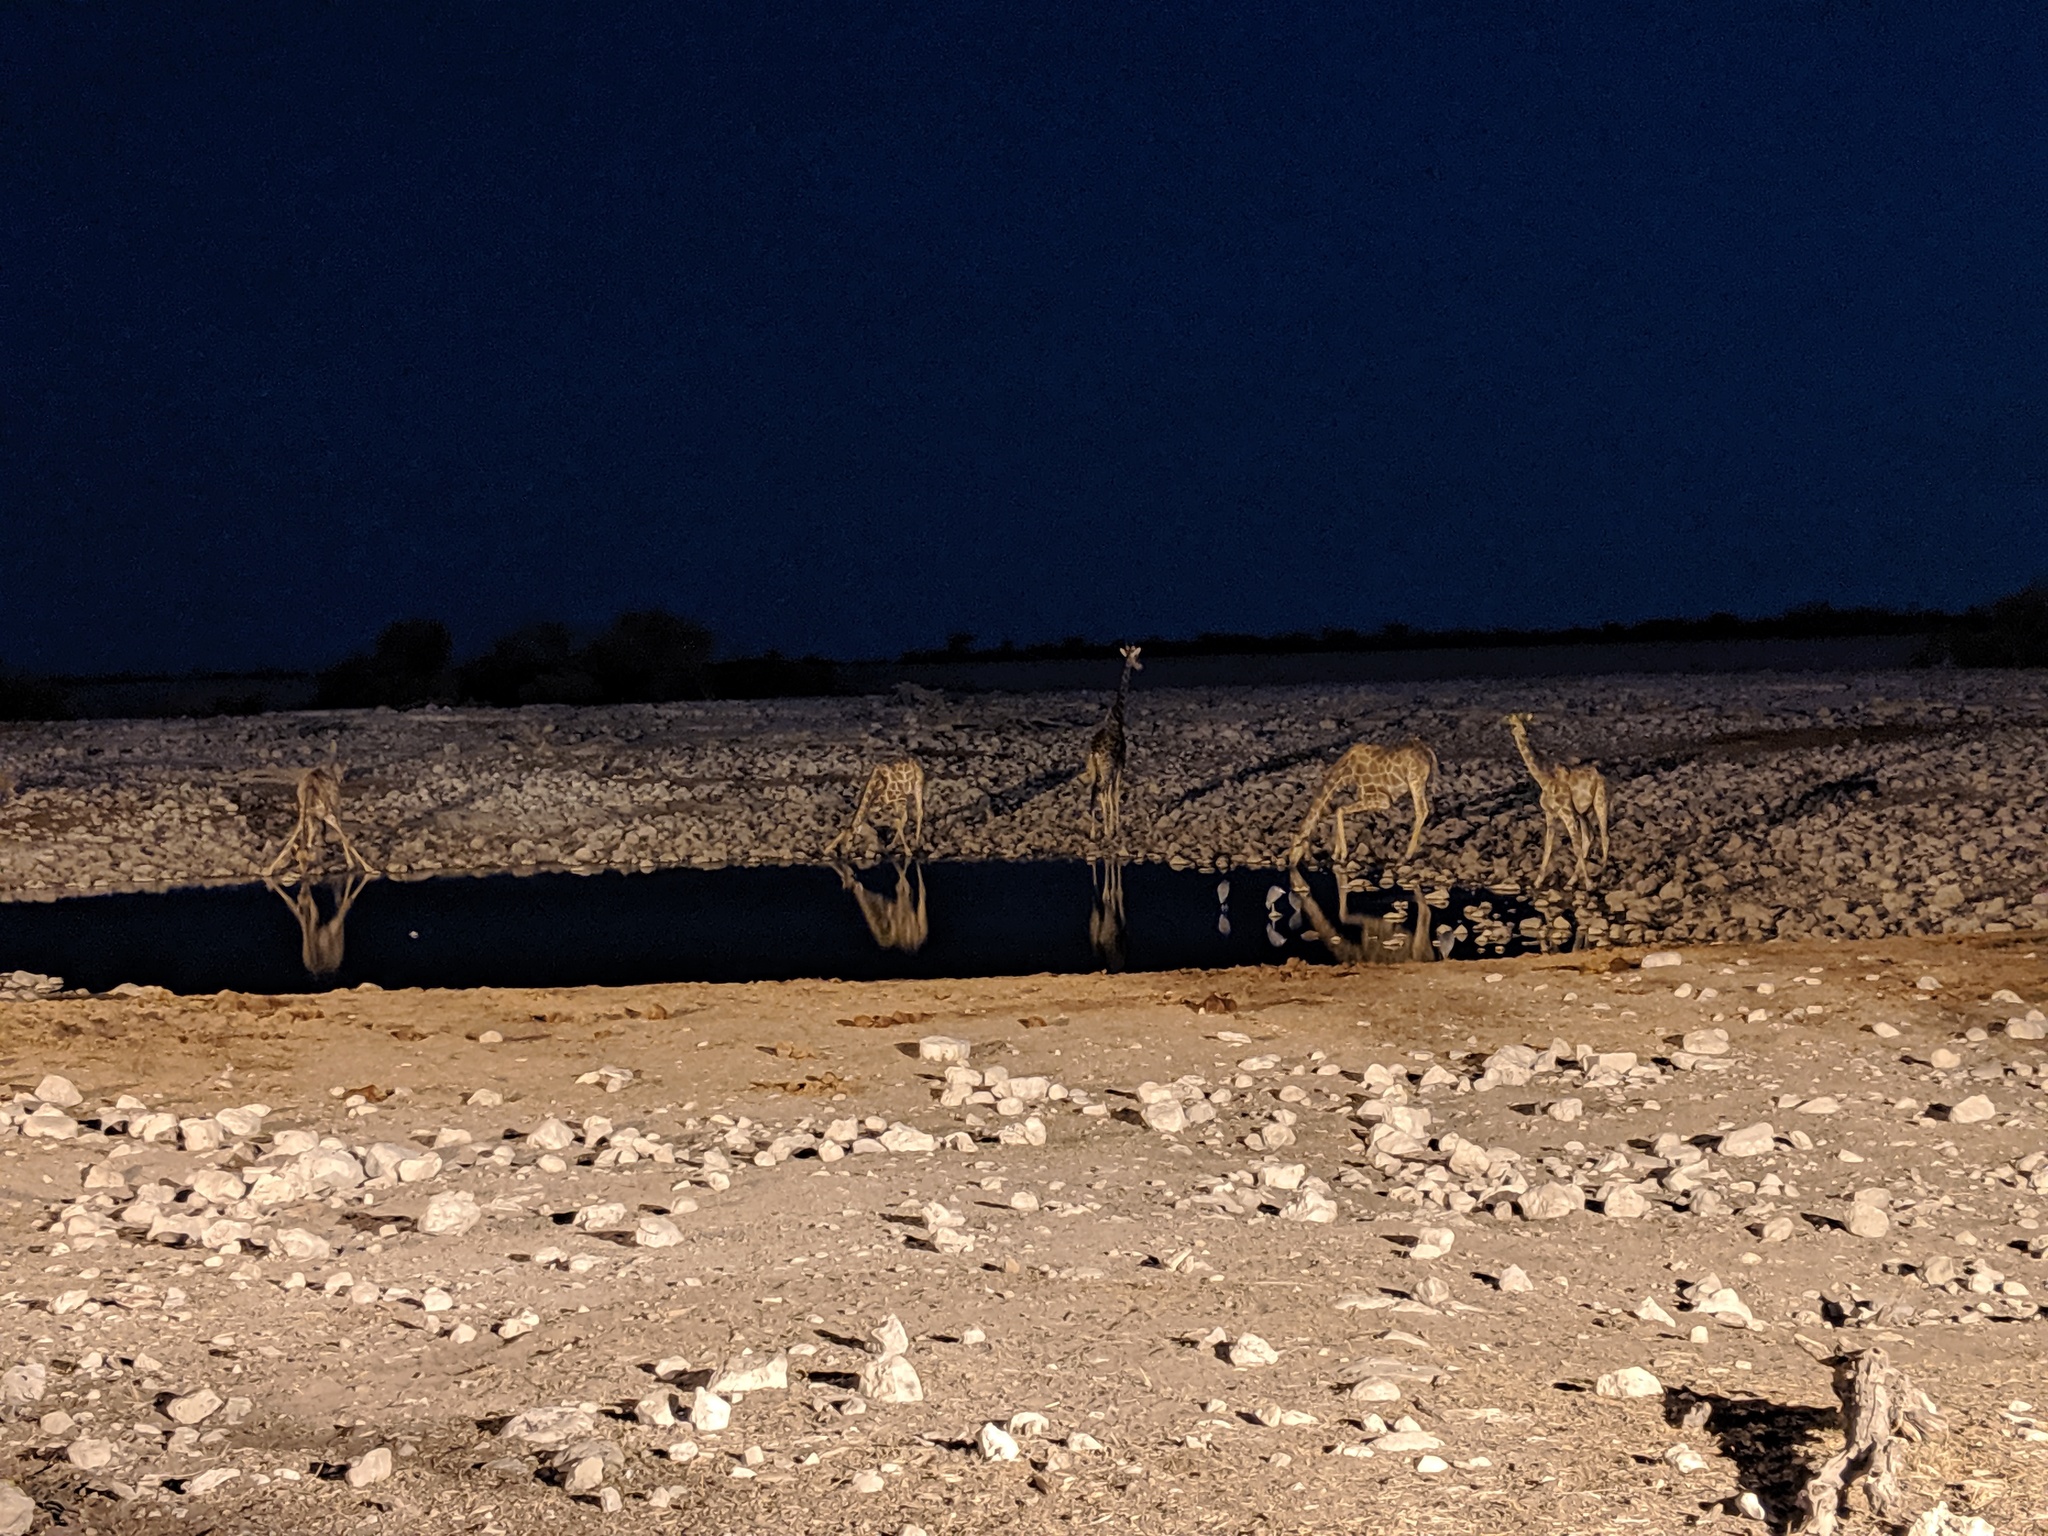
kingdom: Animalia
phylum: Chordata
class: Mammalia
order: Artiodactyla
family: Giraffidae
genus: Giraffa
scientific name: Giraffa giraffa
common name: Southern giraffe
